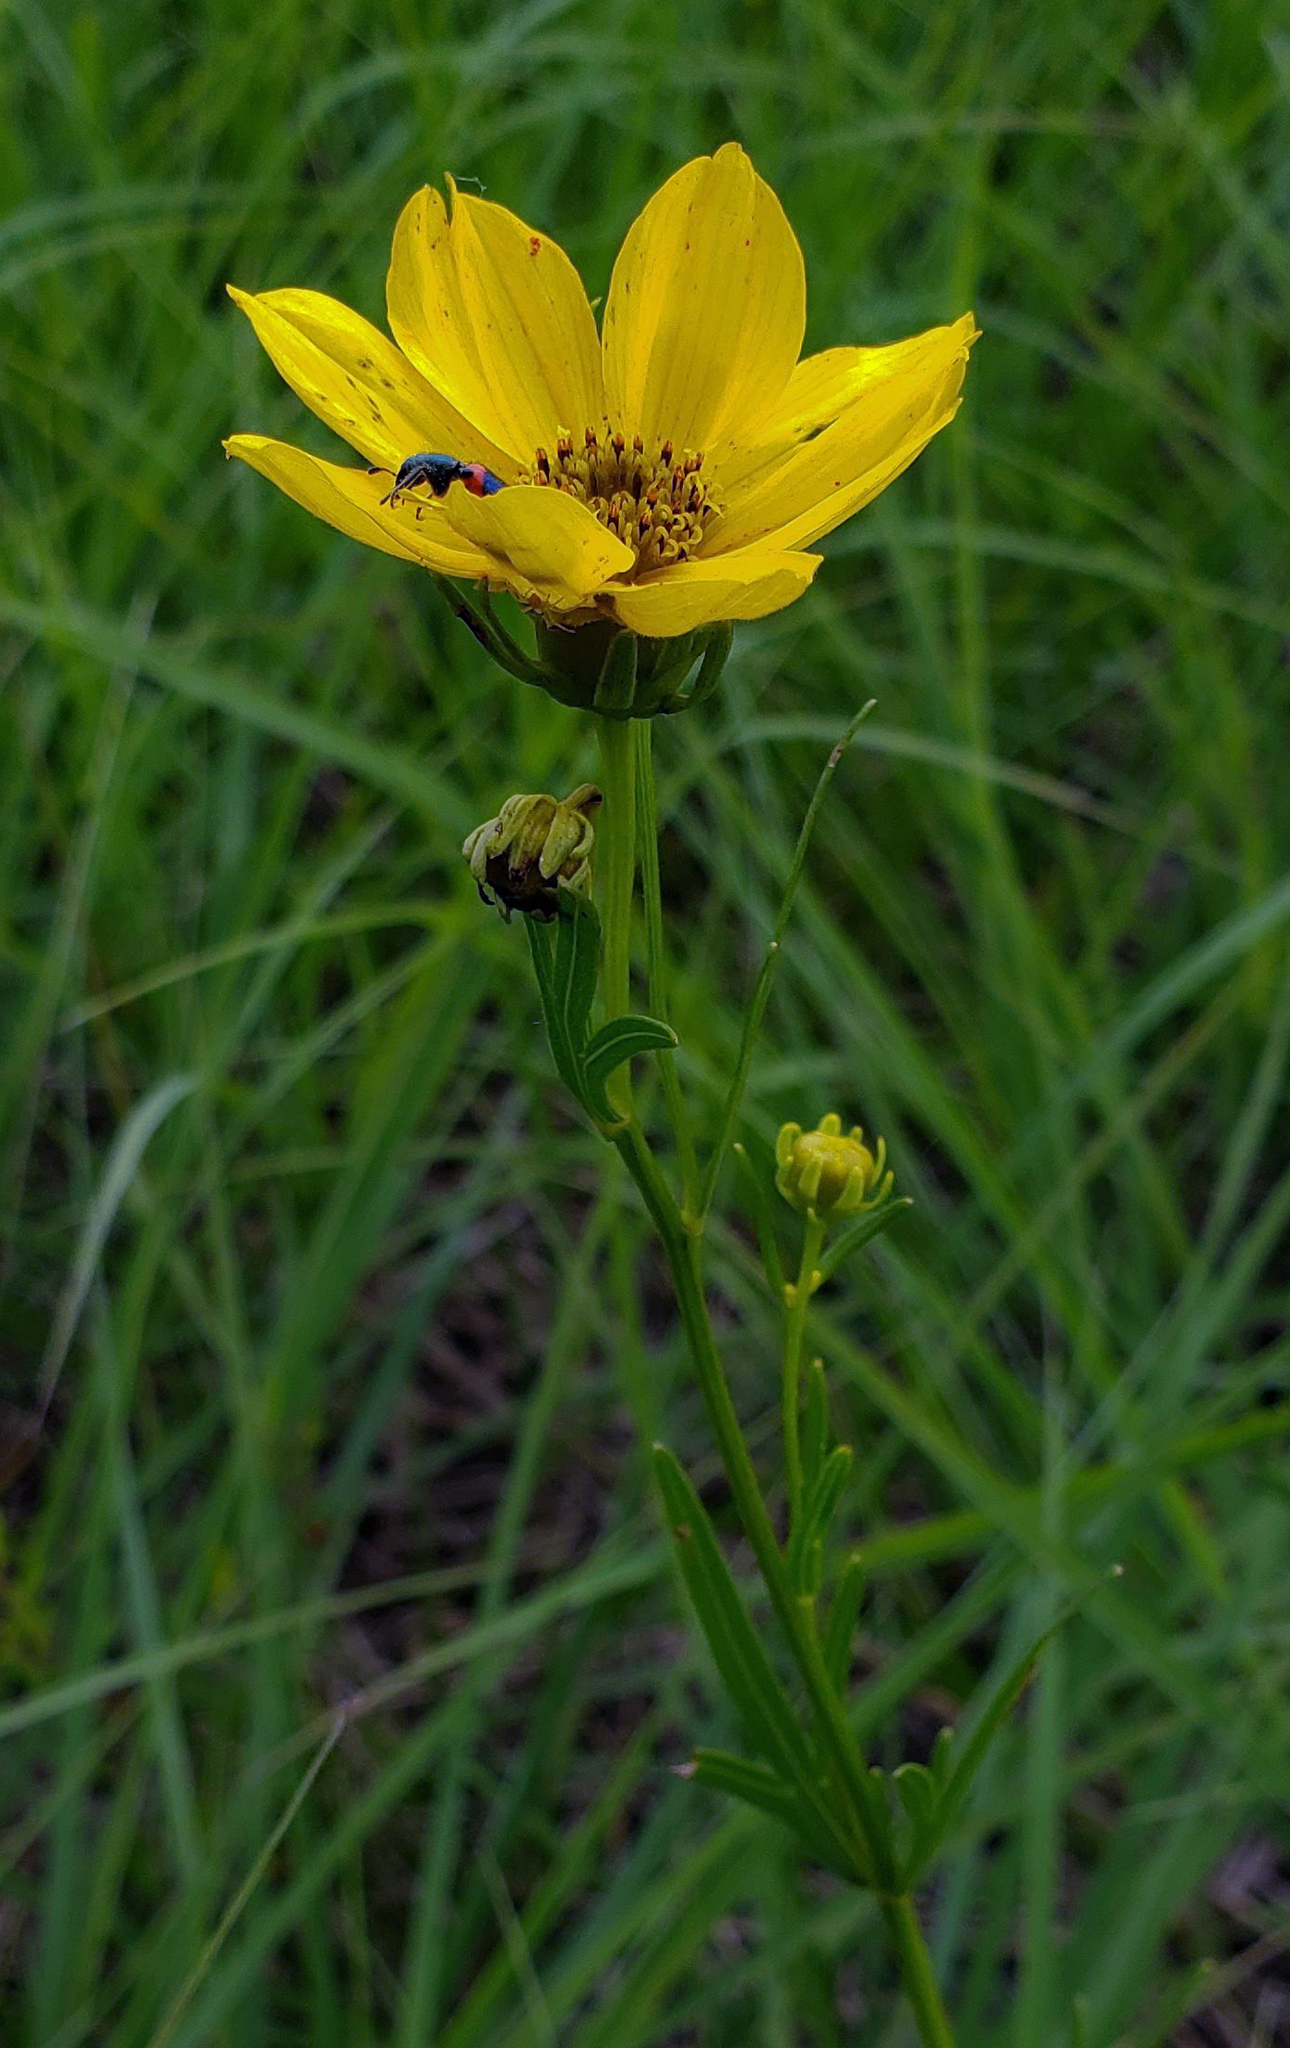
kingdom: Plantae
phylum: Tracheophyta
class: Magnoliopsida
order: Asterales
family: Asteraceae
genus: Coreopsis
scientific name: Coreopsis palmata
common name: Prairie coreopsis
